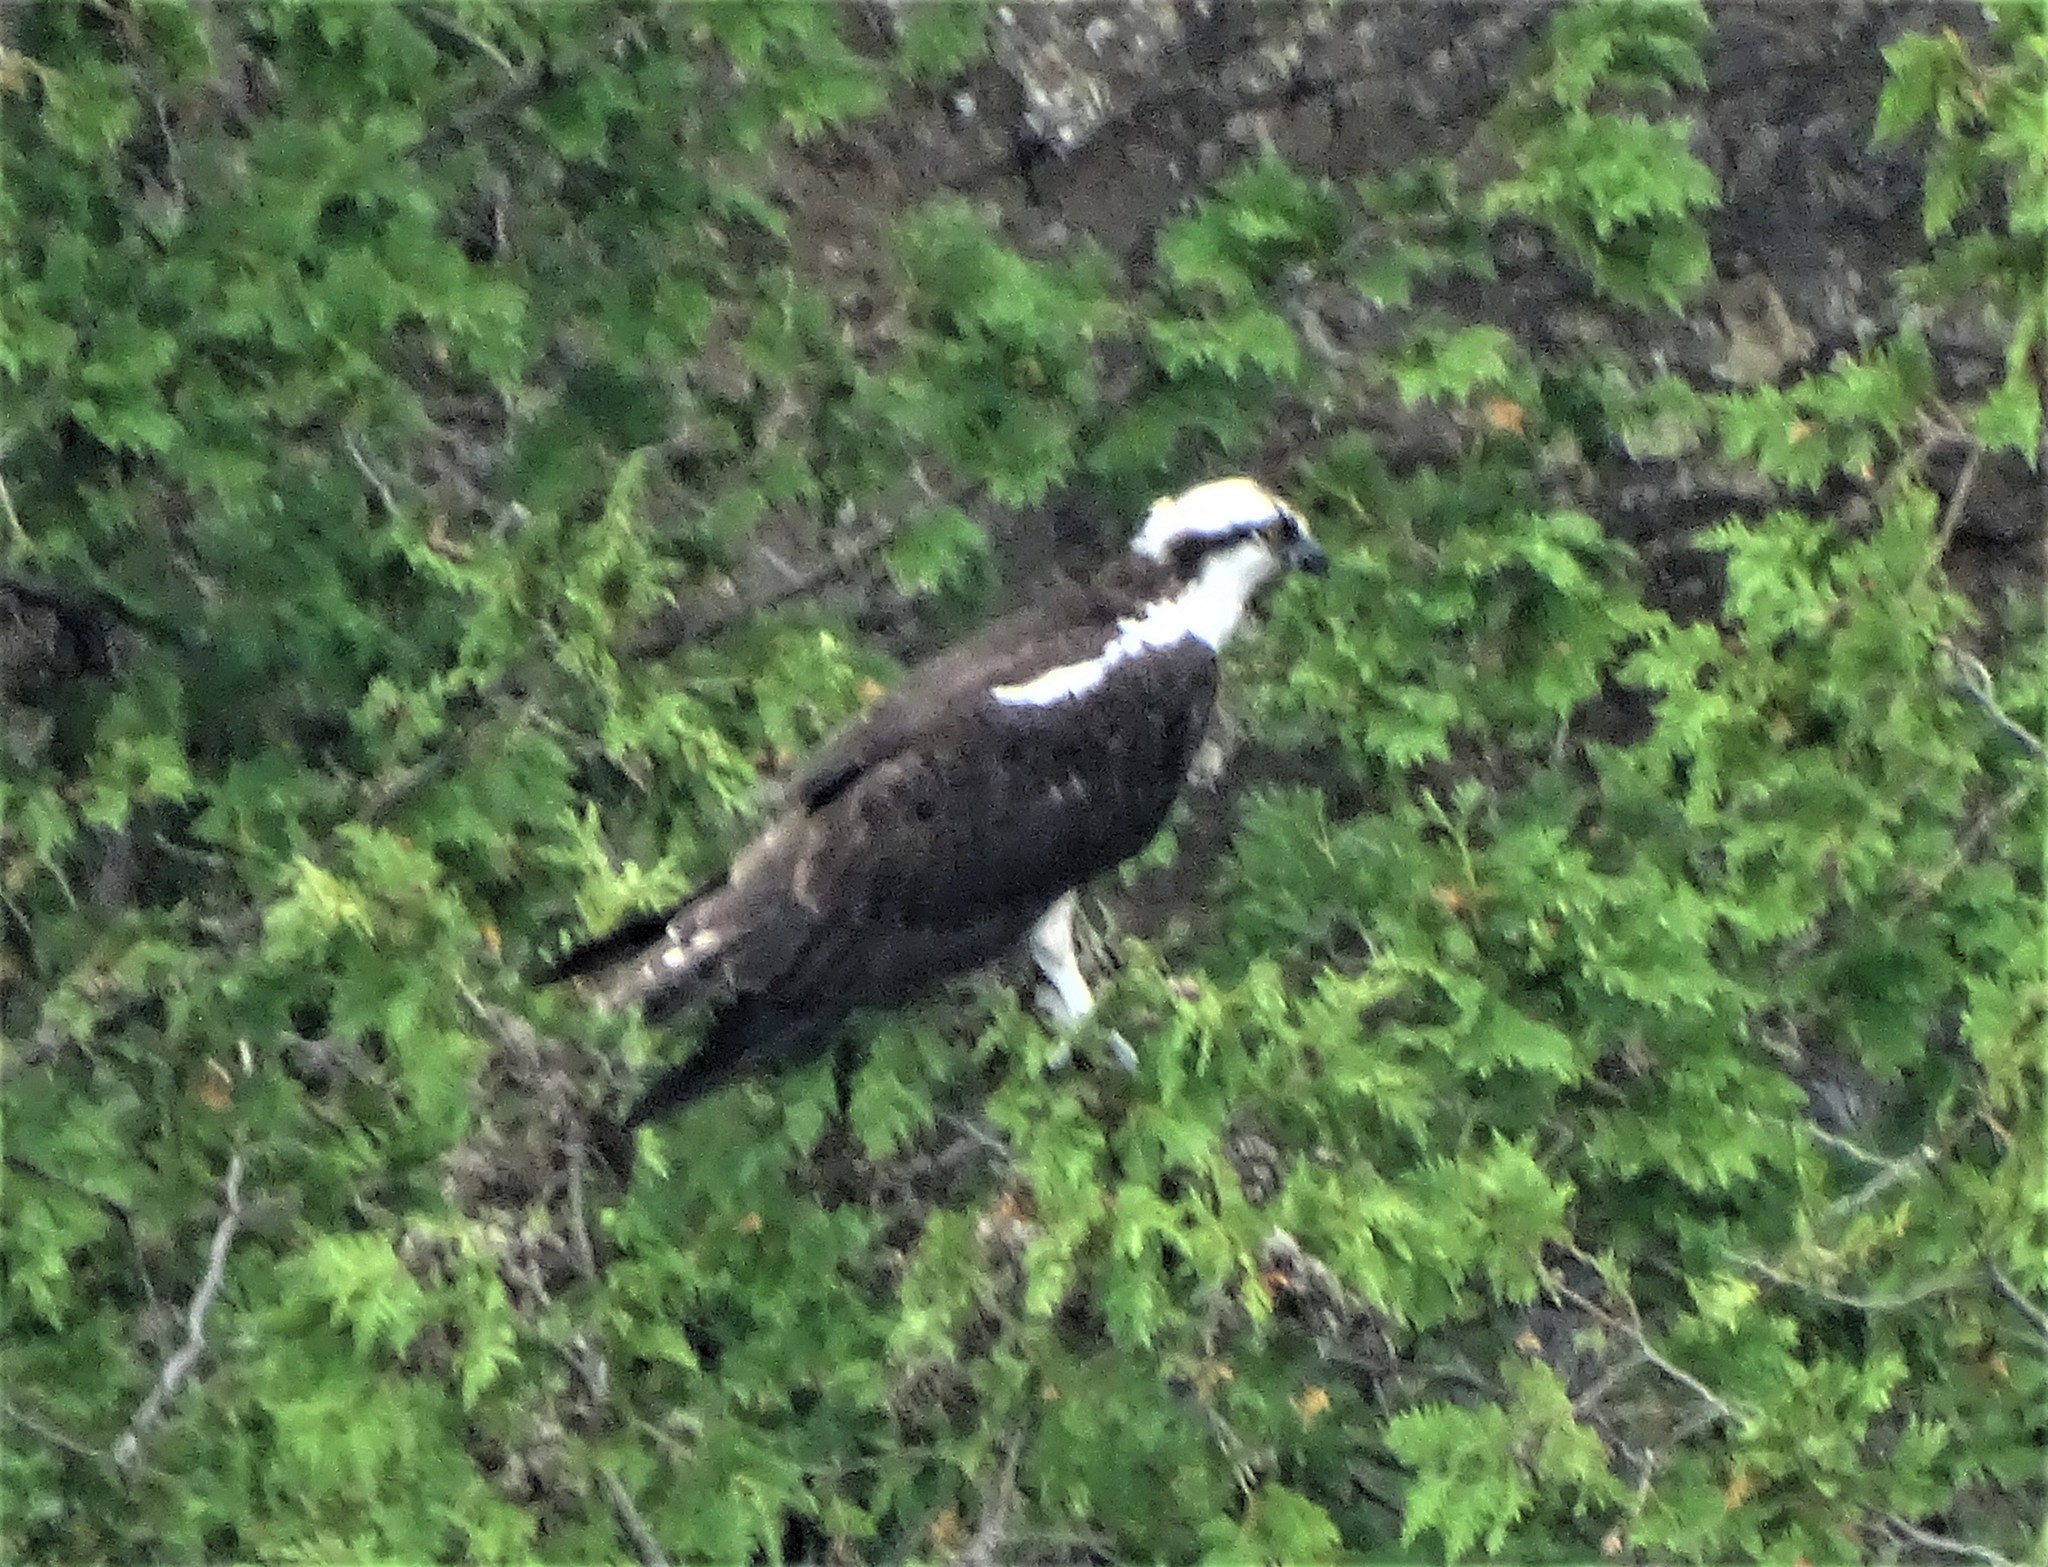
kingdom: Animalia
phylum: Chordata
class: Aves
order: Accipitriformes
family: Pandionidae
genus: Pandion
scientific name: Pandion haliaetus
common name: Osprey
